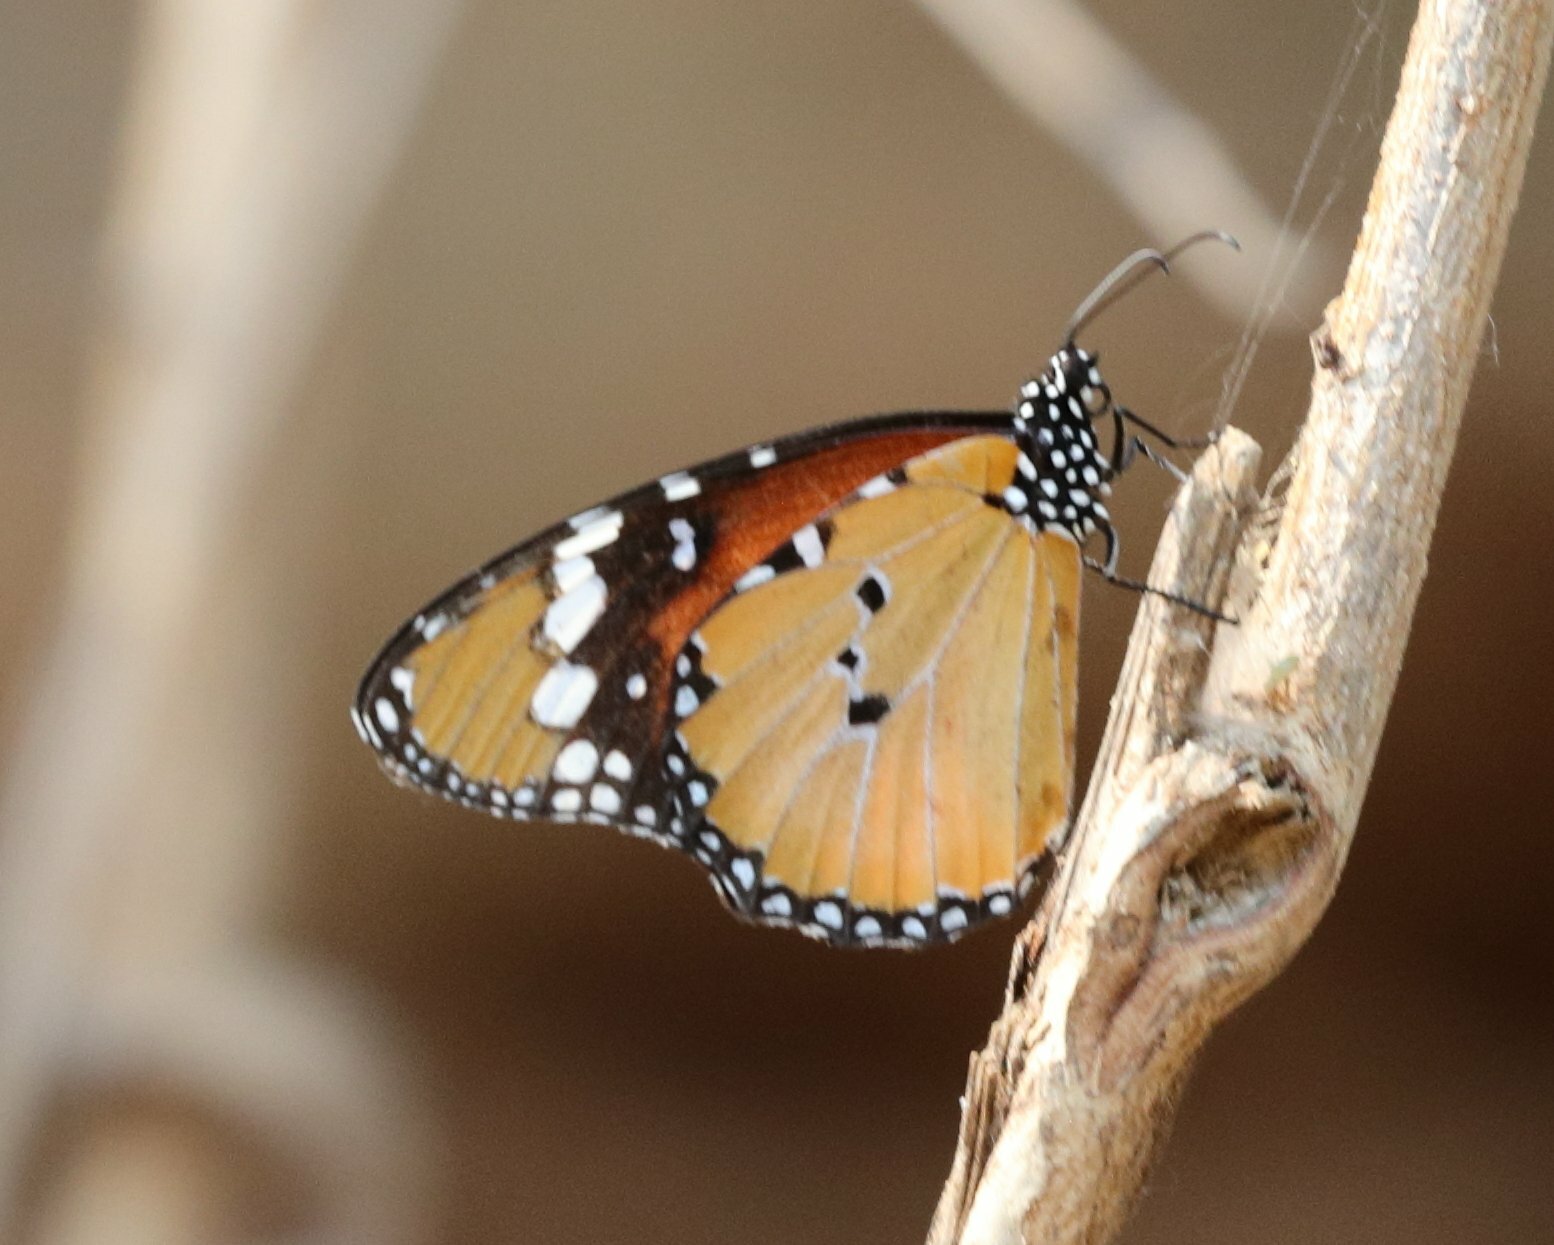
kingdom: Animalia
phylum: Arthropoda
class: Insecta
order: Lepidoptera
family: Nymphalidae
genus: Danaus
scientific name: Danaus chrysippus
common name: Plain tiger
